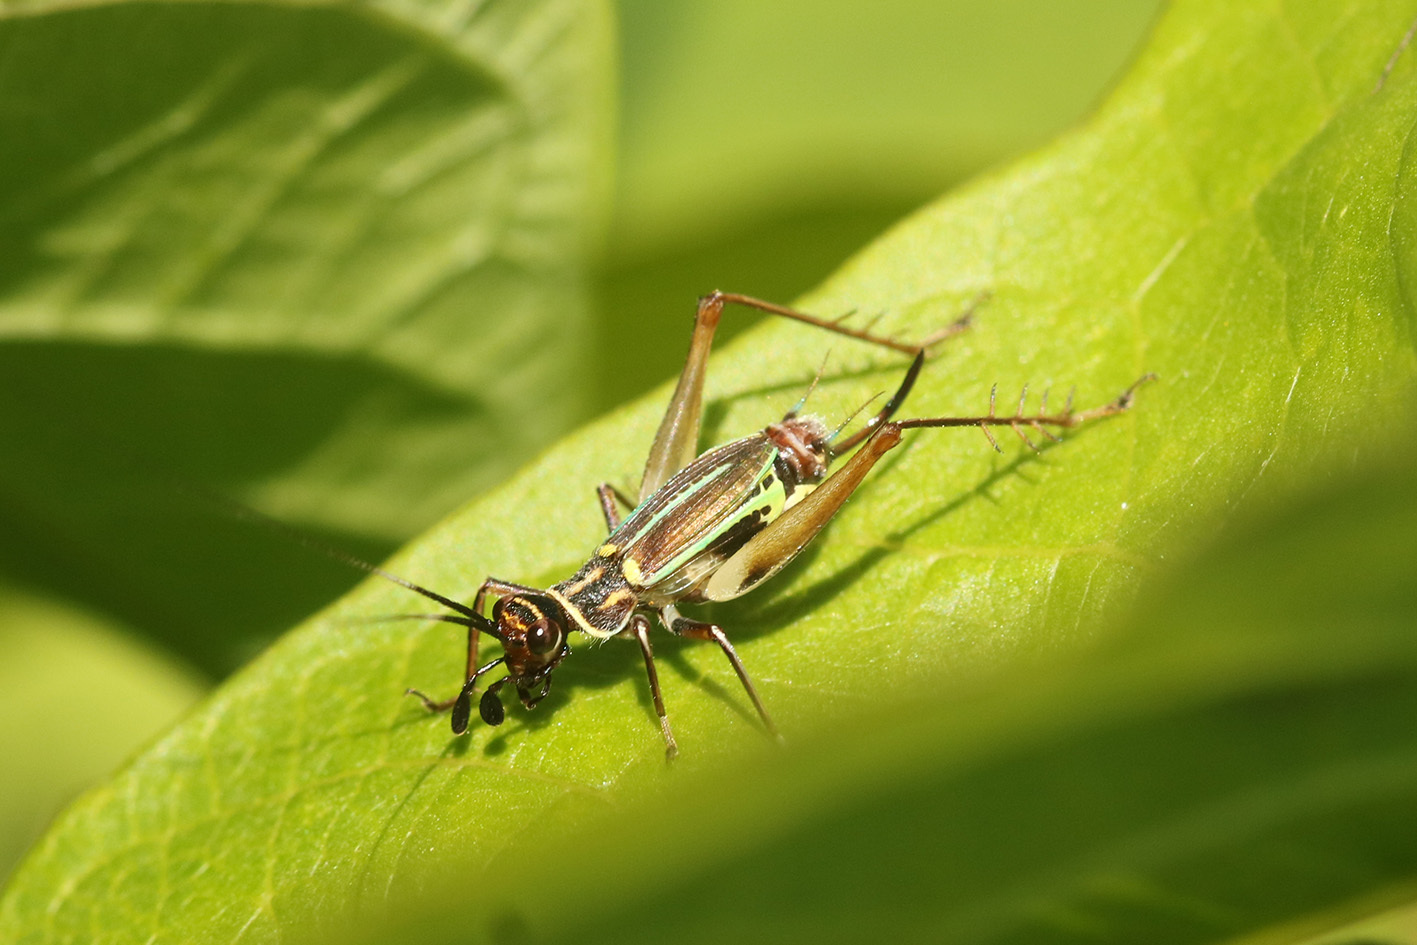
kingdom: Animalia
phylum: Arthropoda
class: Insecta
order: Orthoptera
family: Trigonidiidae
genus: Phylloscyrtus
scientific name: Phylloscyrtus amoenus
